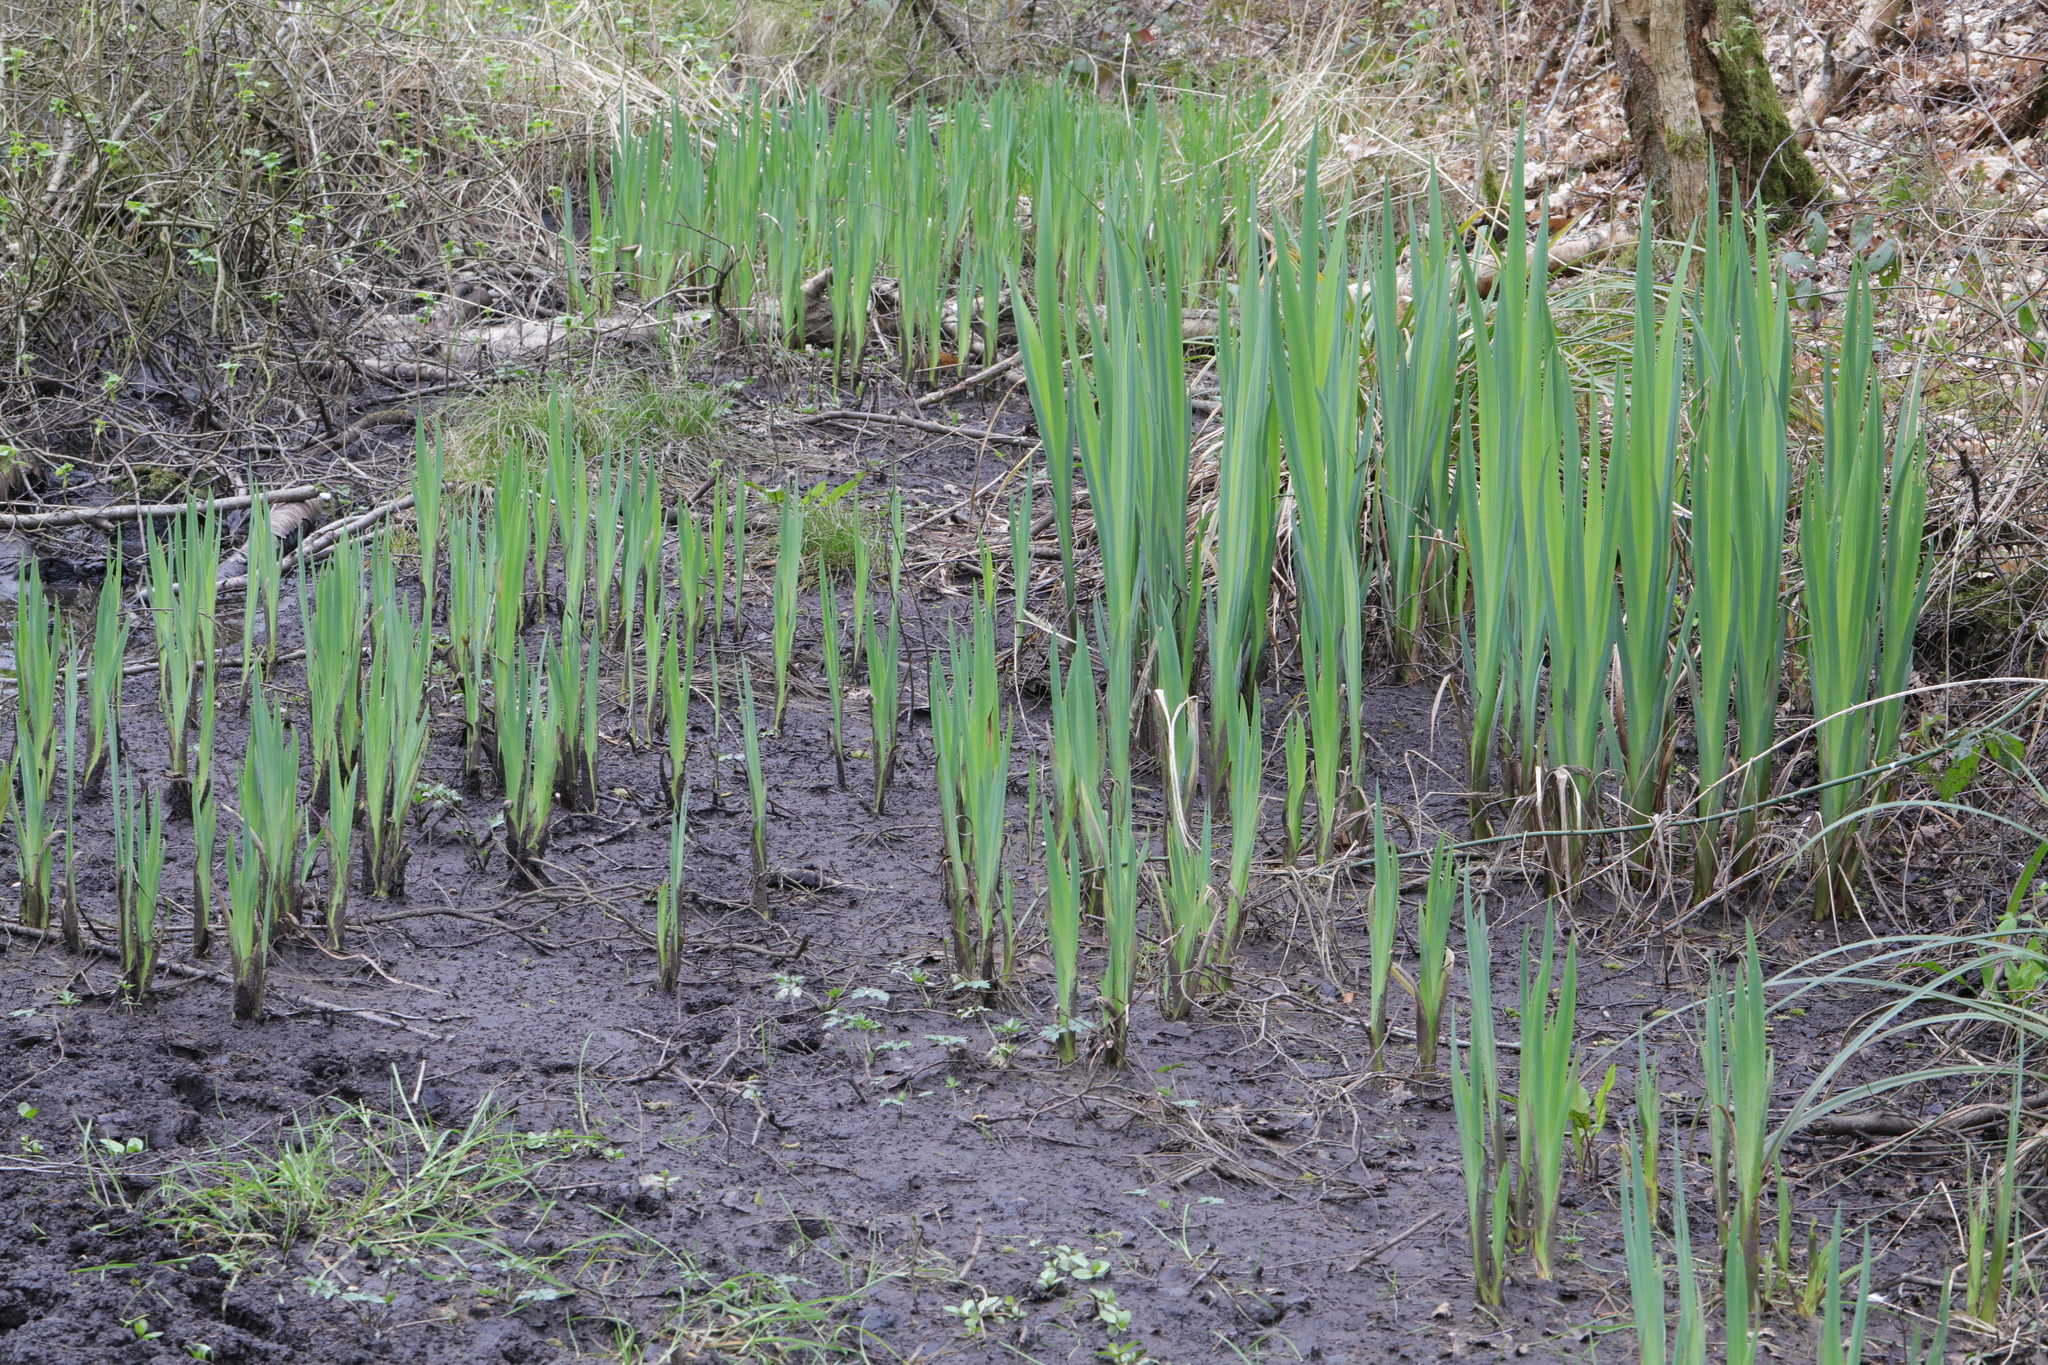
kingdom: Plantae
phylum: Tracheophyta
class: Liliopsida
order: Asparagales
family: Iridaceae
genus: Iris
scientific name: Iris pseudacorus
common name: Yellow flag
